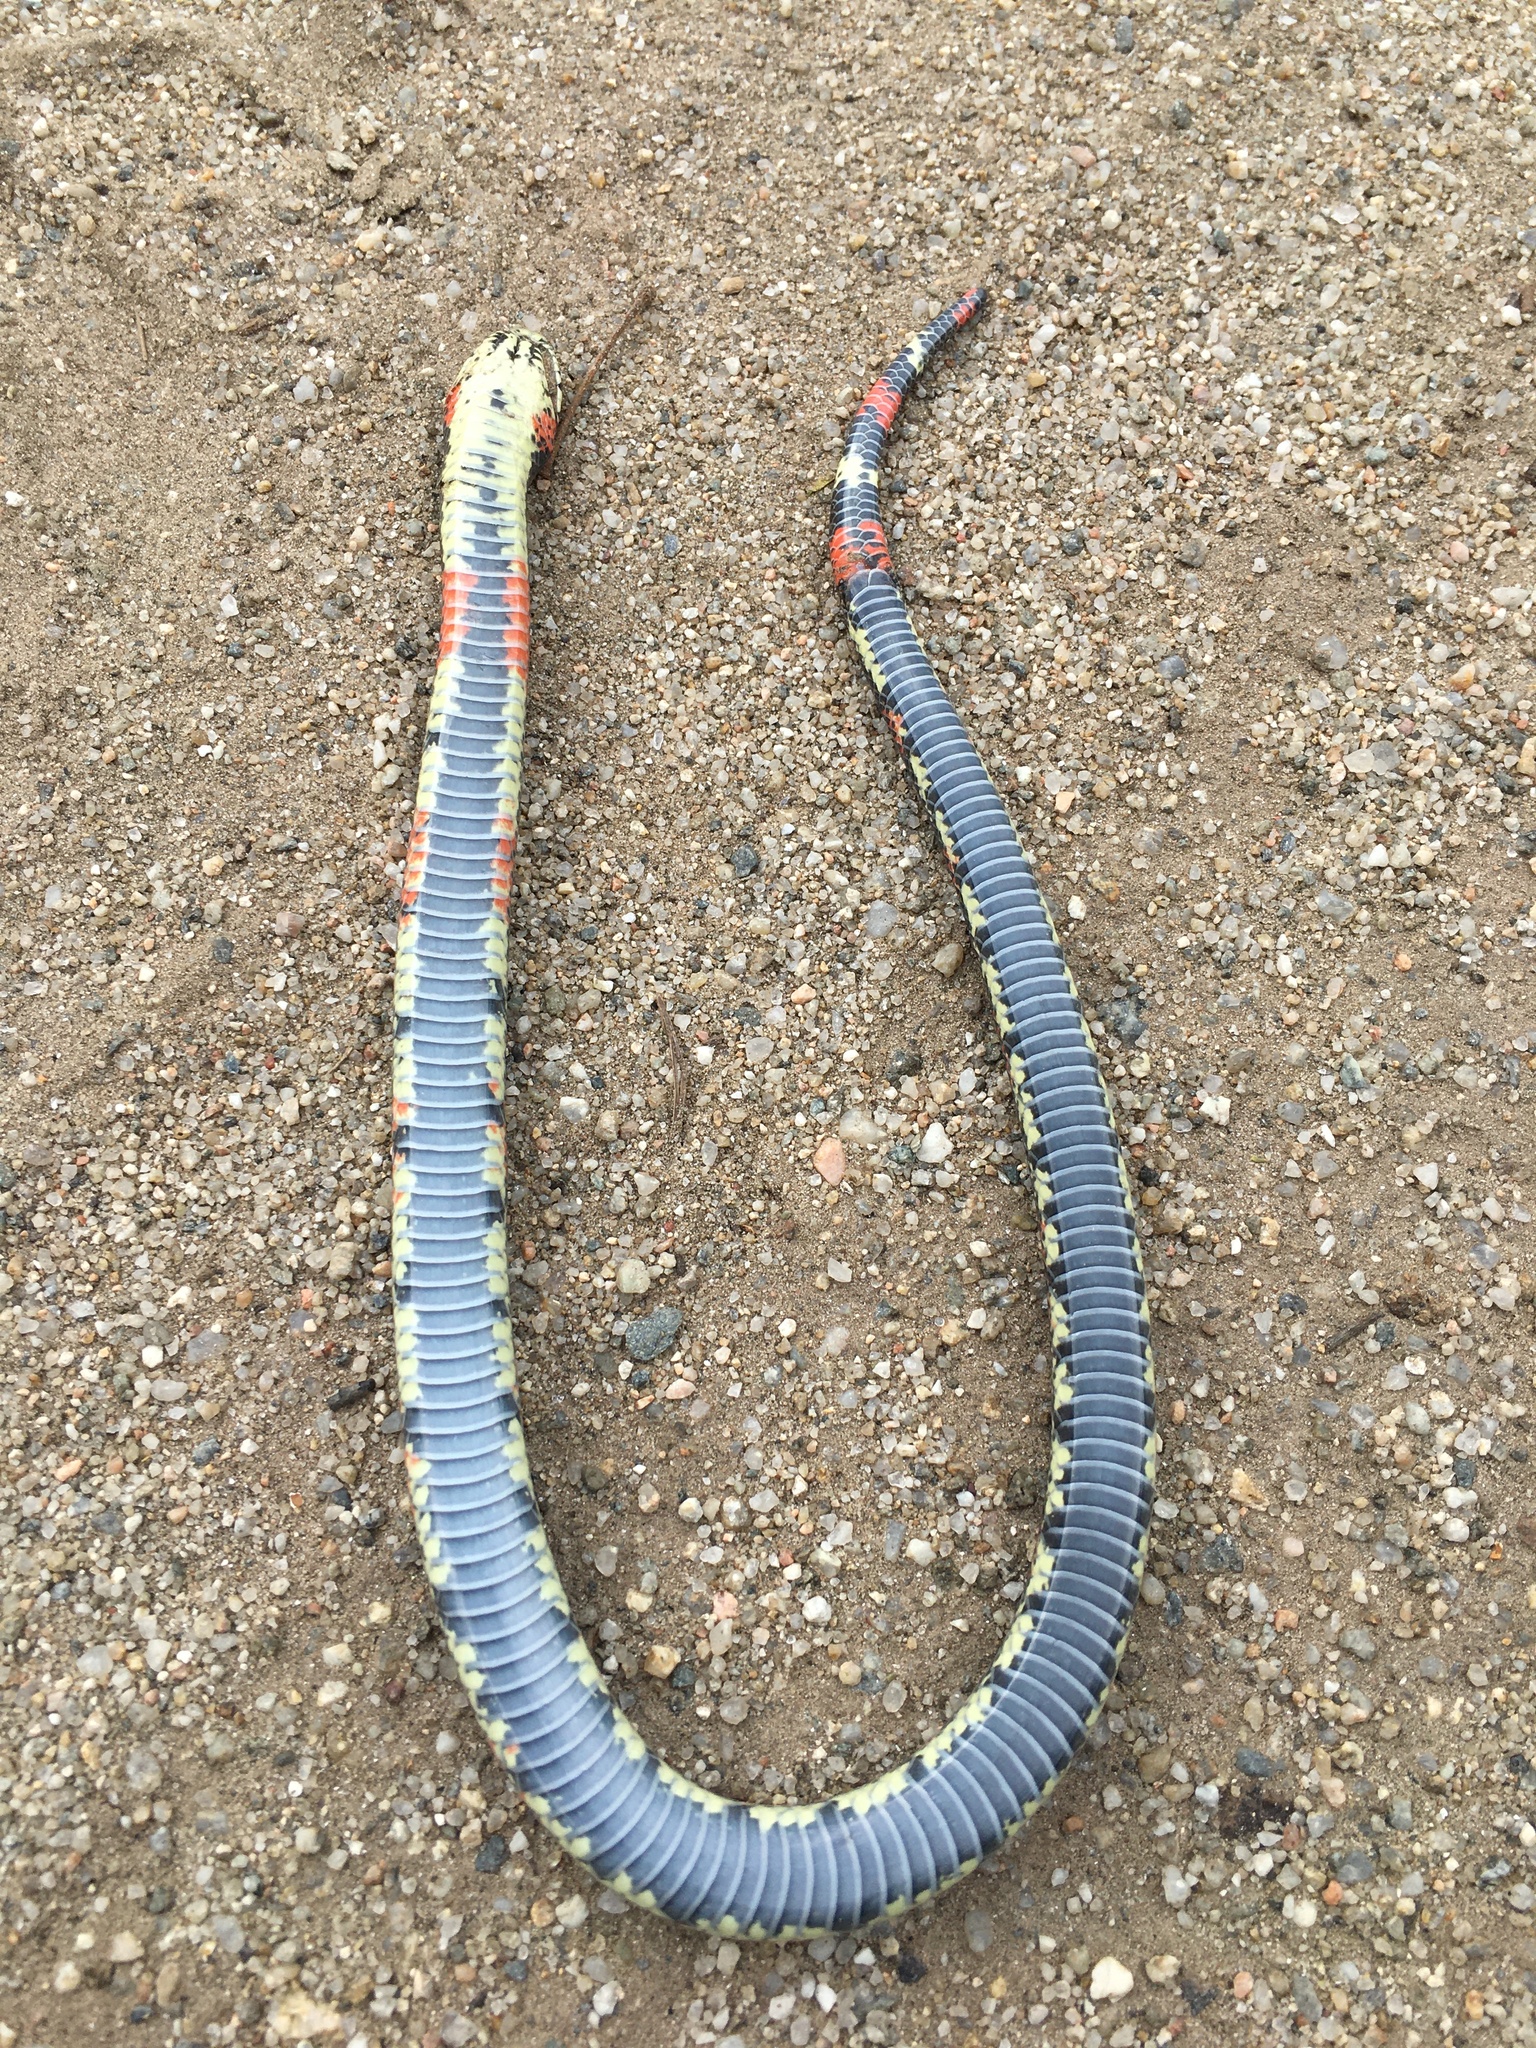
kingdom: Animalia
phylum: Chordata
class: Squamata
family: Colubridae
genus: Xenodon
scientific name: Xenodon semicinctus
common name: Ringed hognose snake
